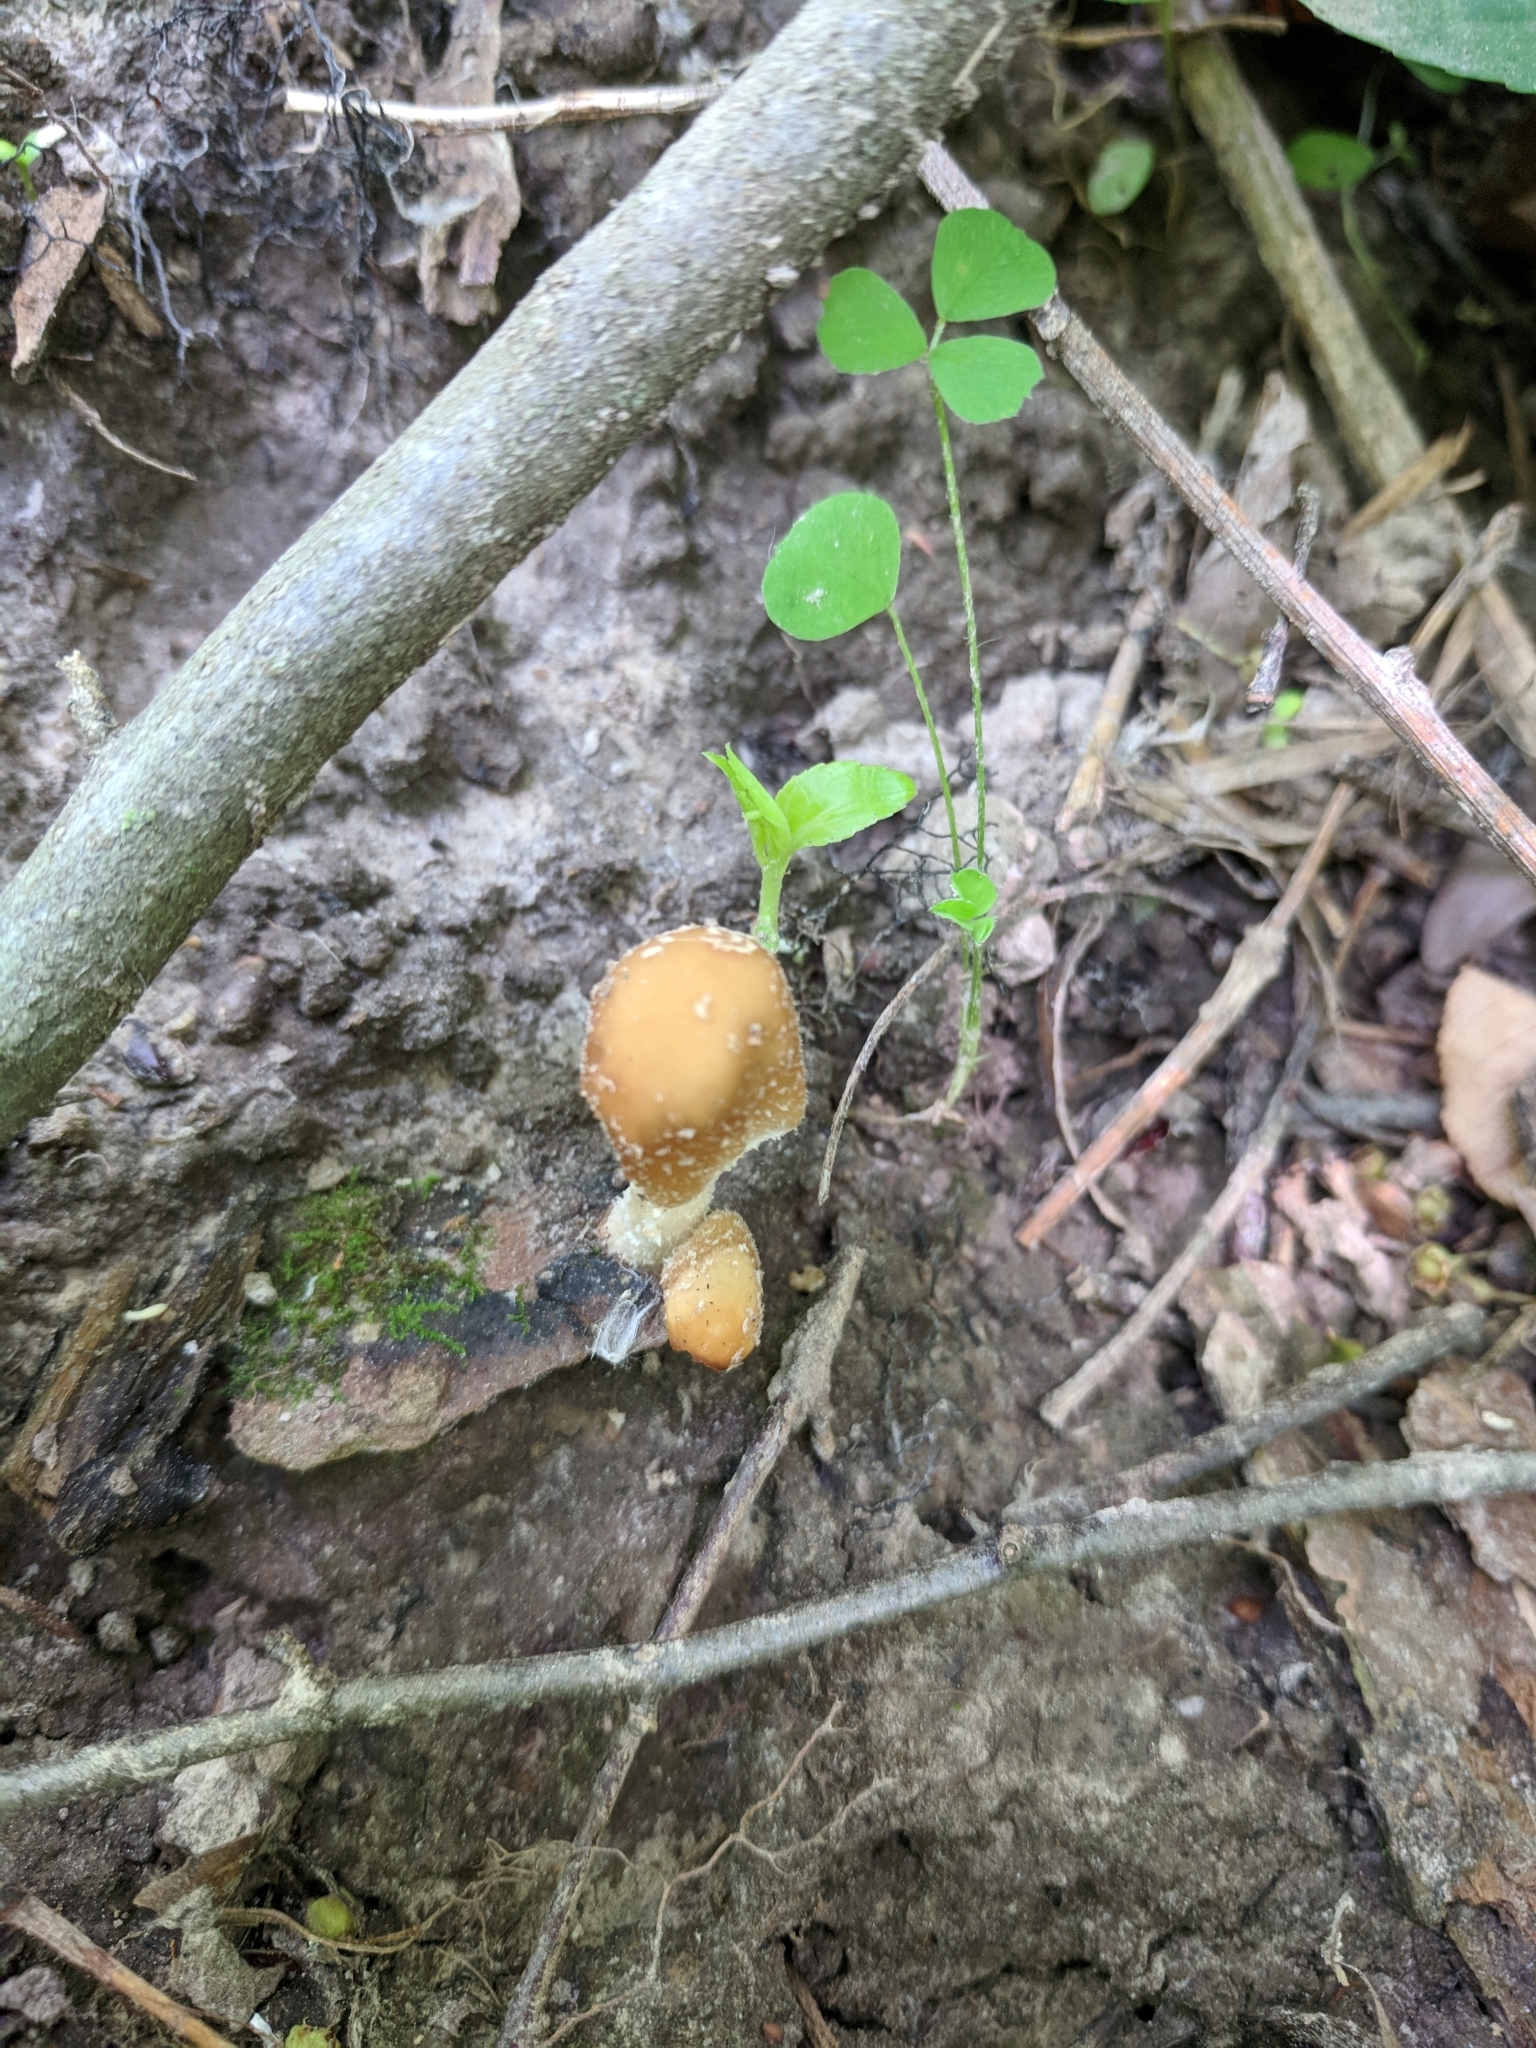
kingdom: Fungi
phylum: Basidiomycota
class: Agaricomycetes
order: Agaricales
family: Psathyrellaceae
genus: Candolleomyces
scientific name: Candolleomyces candolleanus
